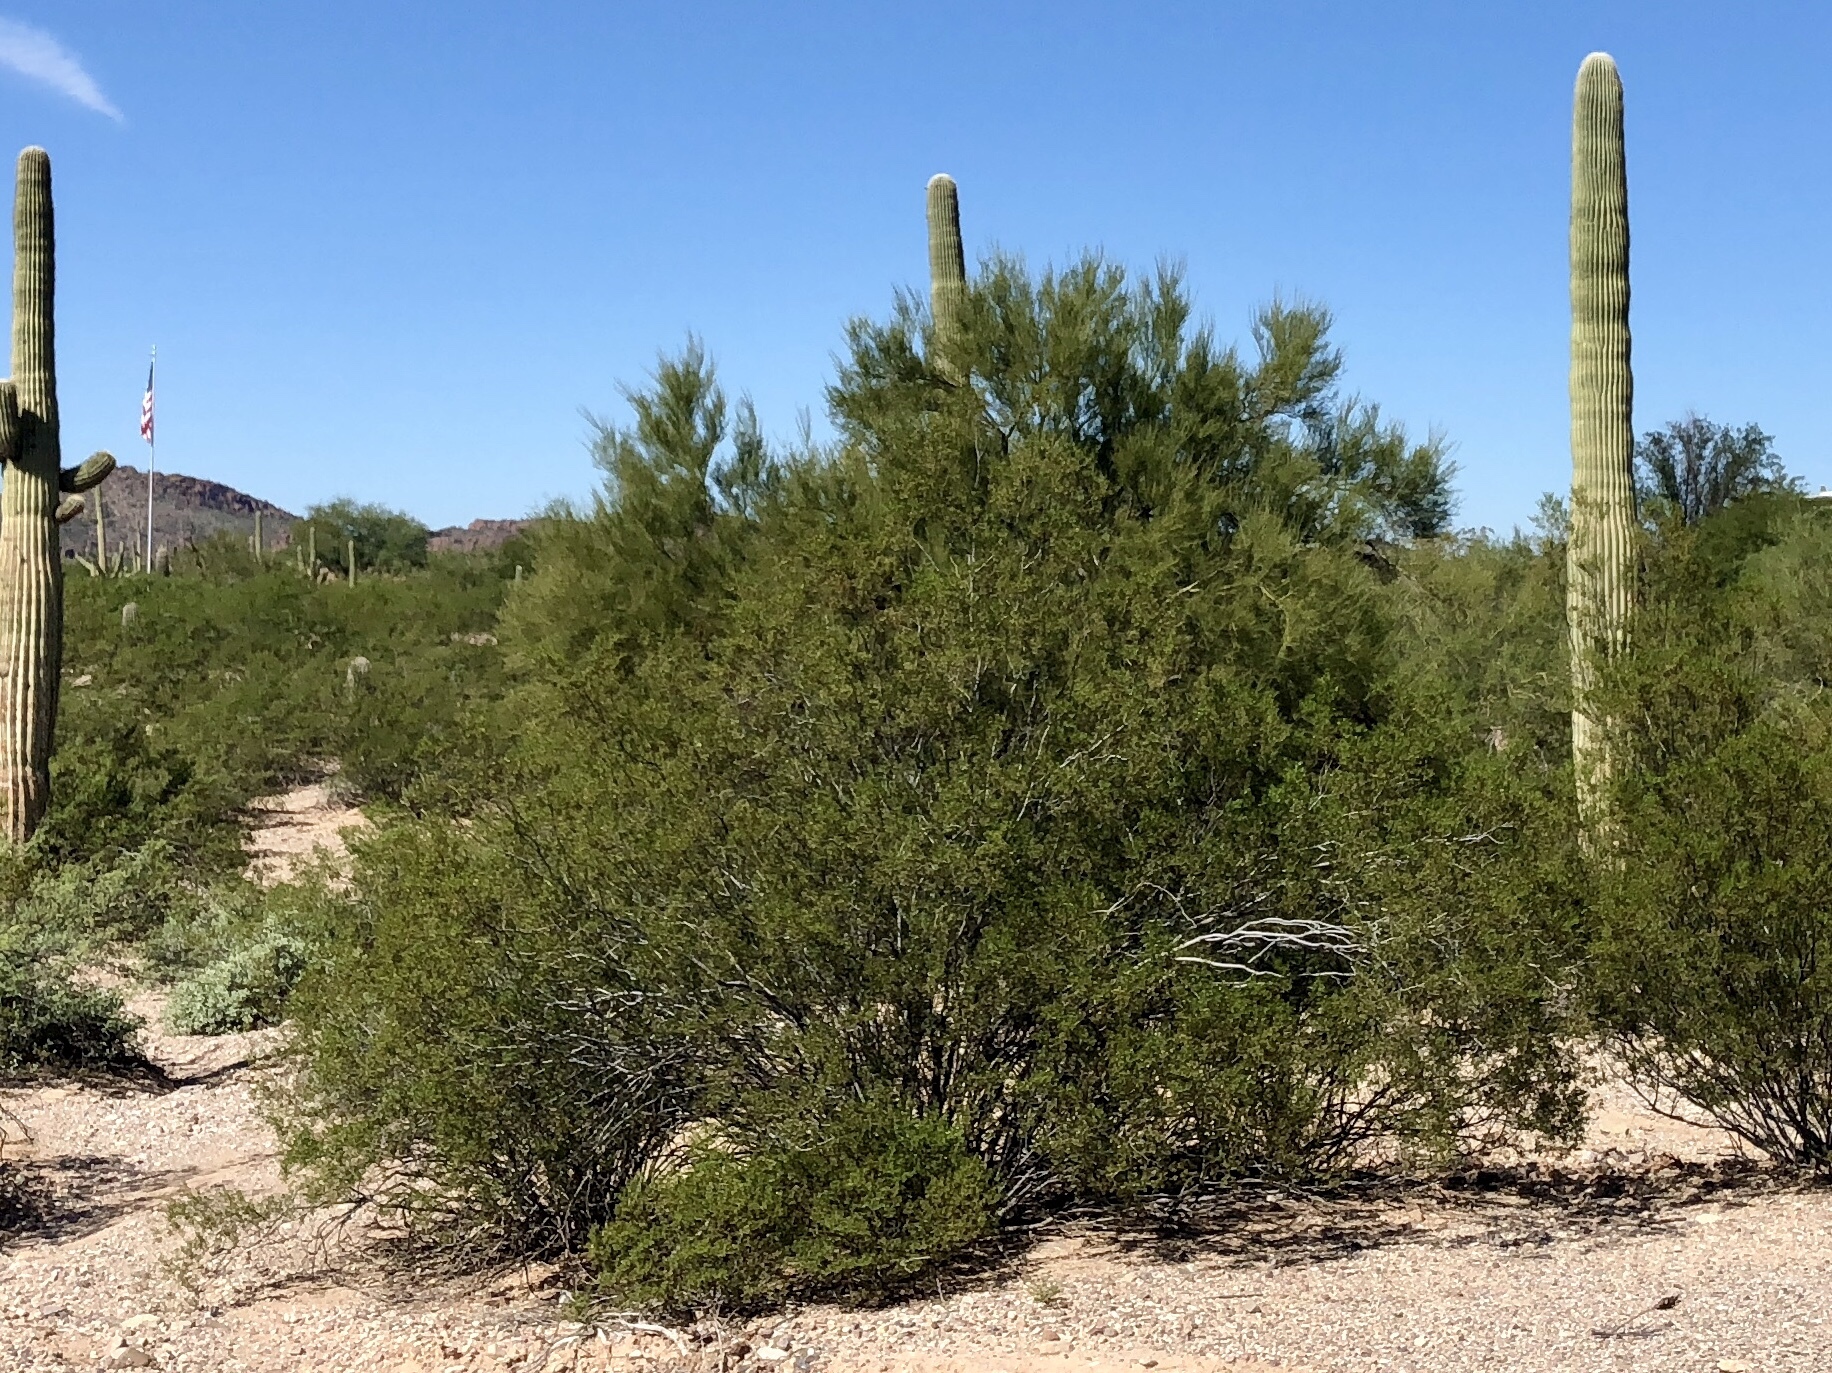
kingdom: Plantae
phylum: Tracheophyta
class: Magnoliopsida
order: Zygophyllales
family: Zygophyllaceae
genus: Larrea
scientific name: Larrea tridentata
